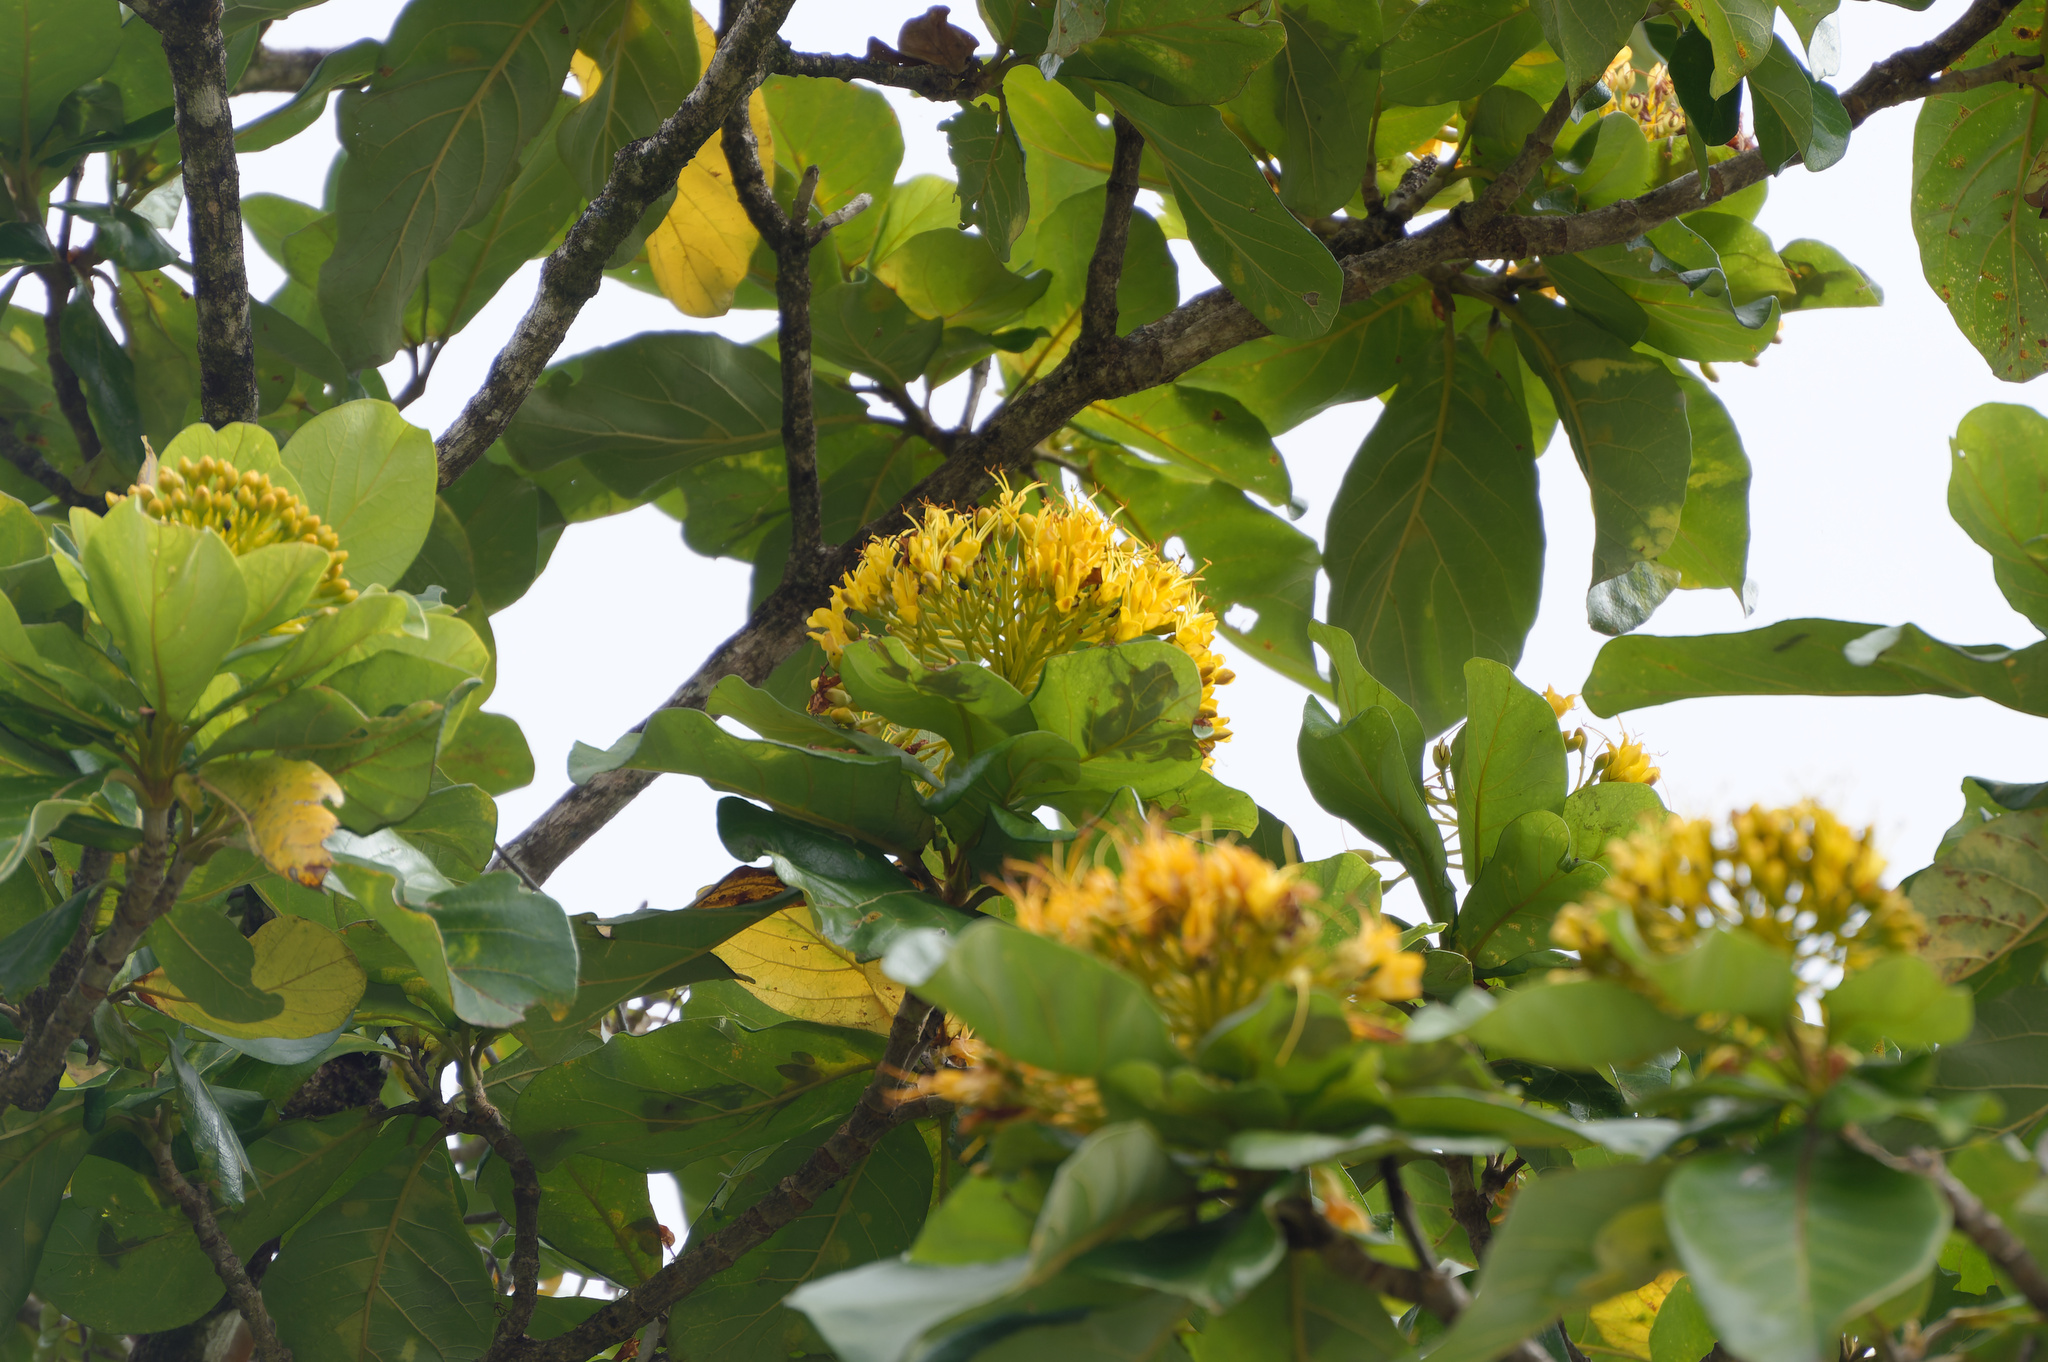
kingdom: Plantae
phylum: Tracheophyta
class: Magnoliopsida
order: Lamiales
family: Bignoniaceae
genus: Deplanchea
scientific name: Deplanchea tetraphylla
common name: Deplanchea
